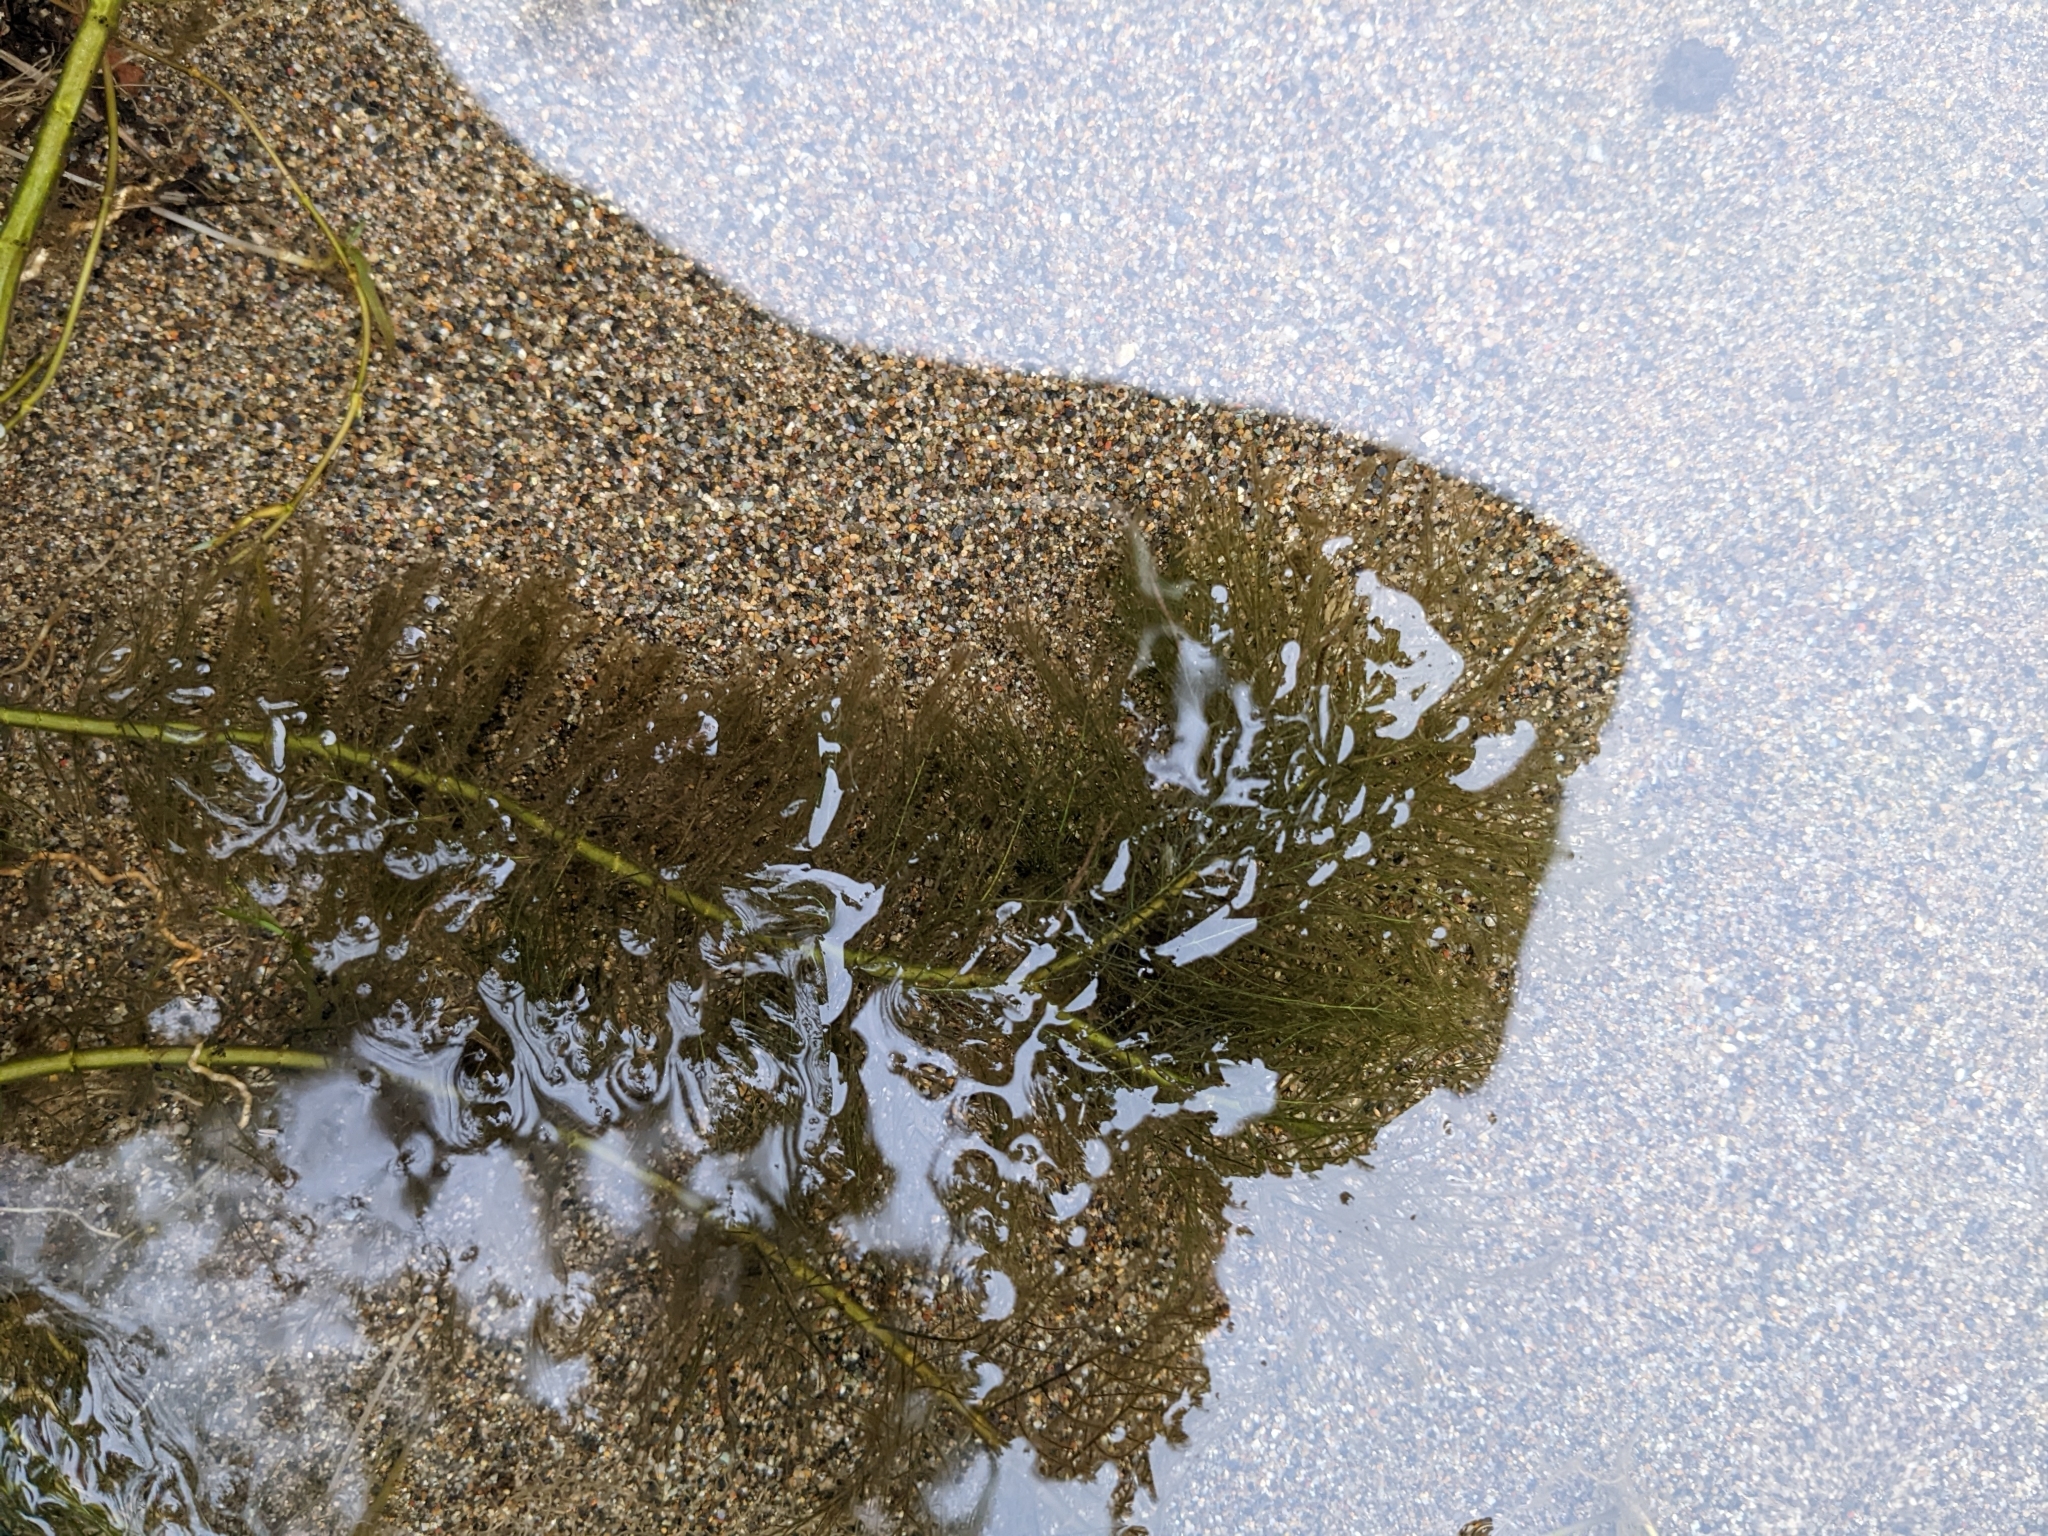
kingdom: Plantae
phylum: Tracheophyta
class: Magnoliopsida
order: Saxifragales
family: Haloragaceae
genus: Myriophyllum
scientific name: Myriophyllum spicatum
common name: Spiked water-milfoil
